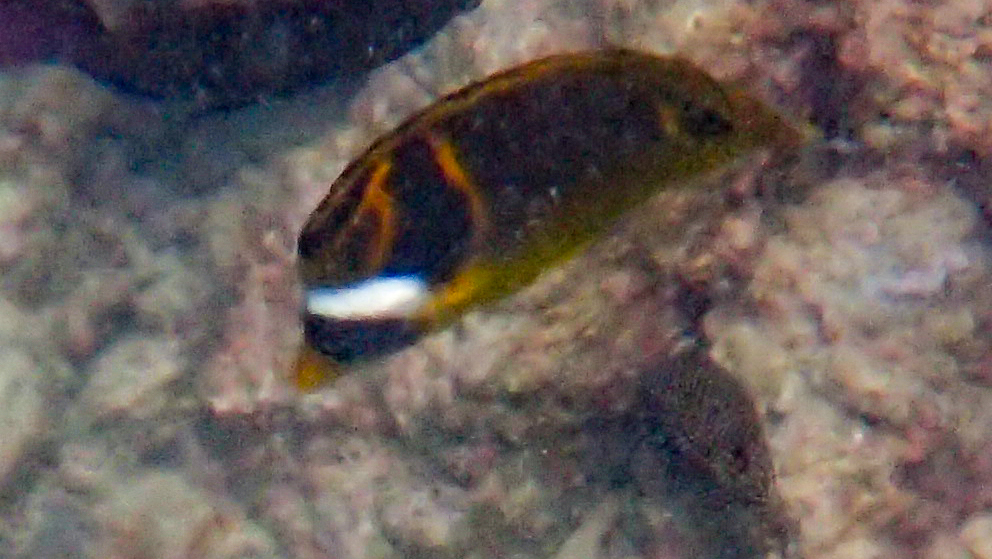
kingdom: Animalia
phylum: Chordata
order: Perciformes
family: Chaetodontidae
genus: Chaetodon
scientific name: Chaetodon lunula
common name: Raccoon butterflyfish
